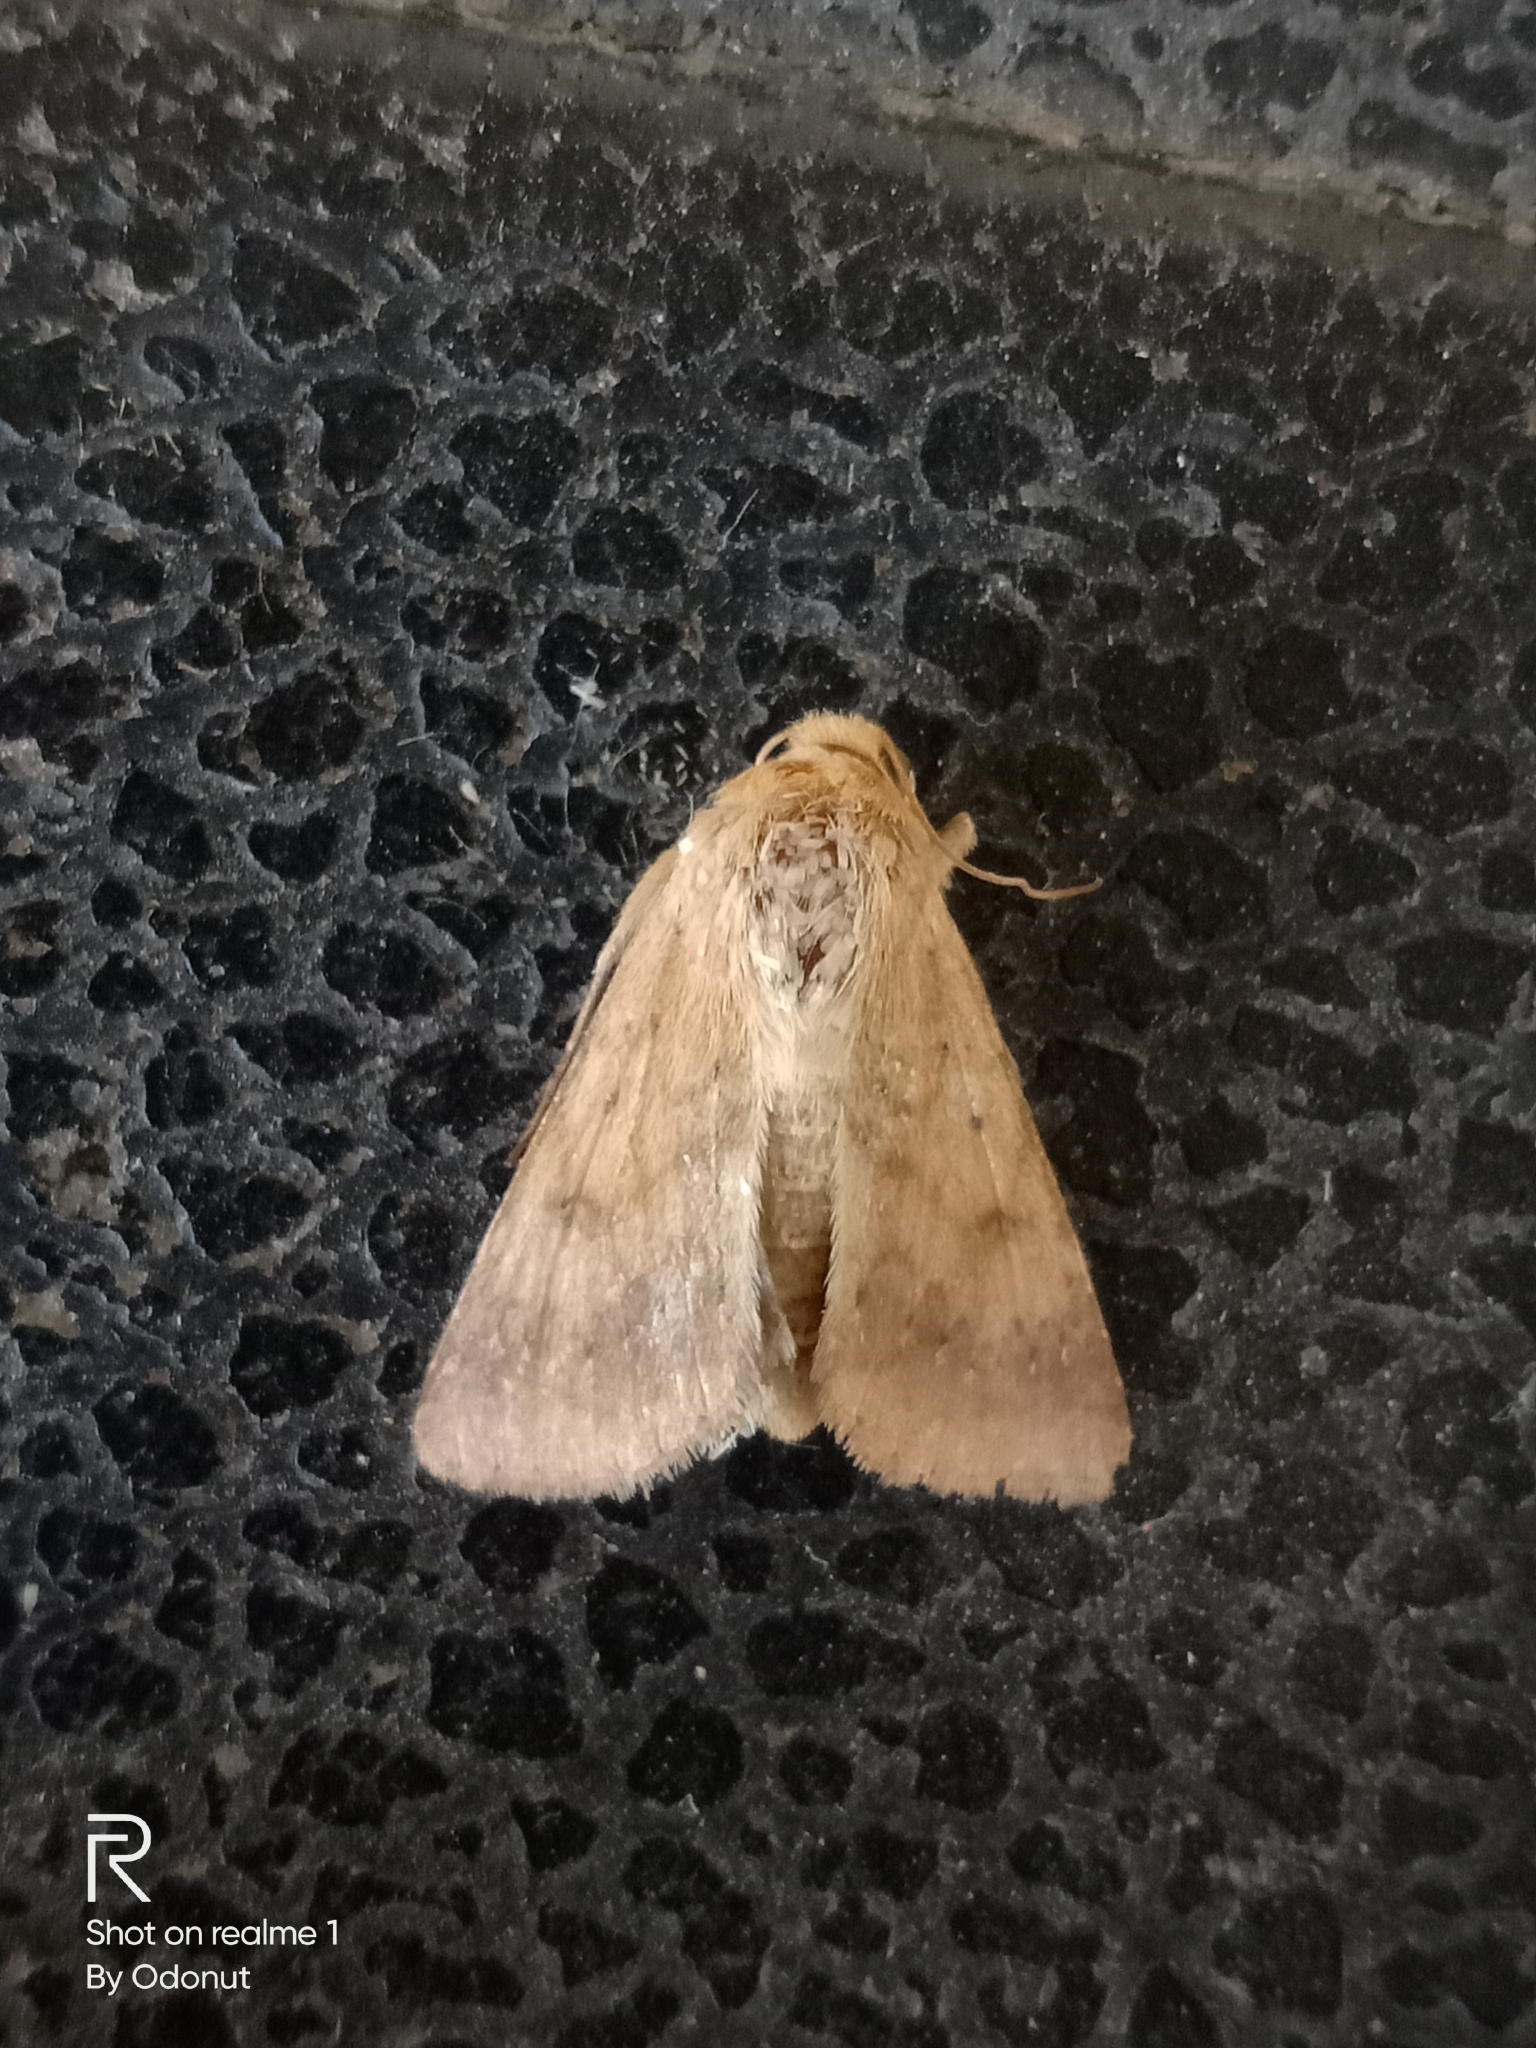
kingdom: Animalia
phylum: Arthropoda
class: Insecta
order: Lepidoptera
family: Noctuidae
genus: Helicoverpa
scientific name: Helicoverpa armigera
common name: Cotton bollworm
